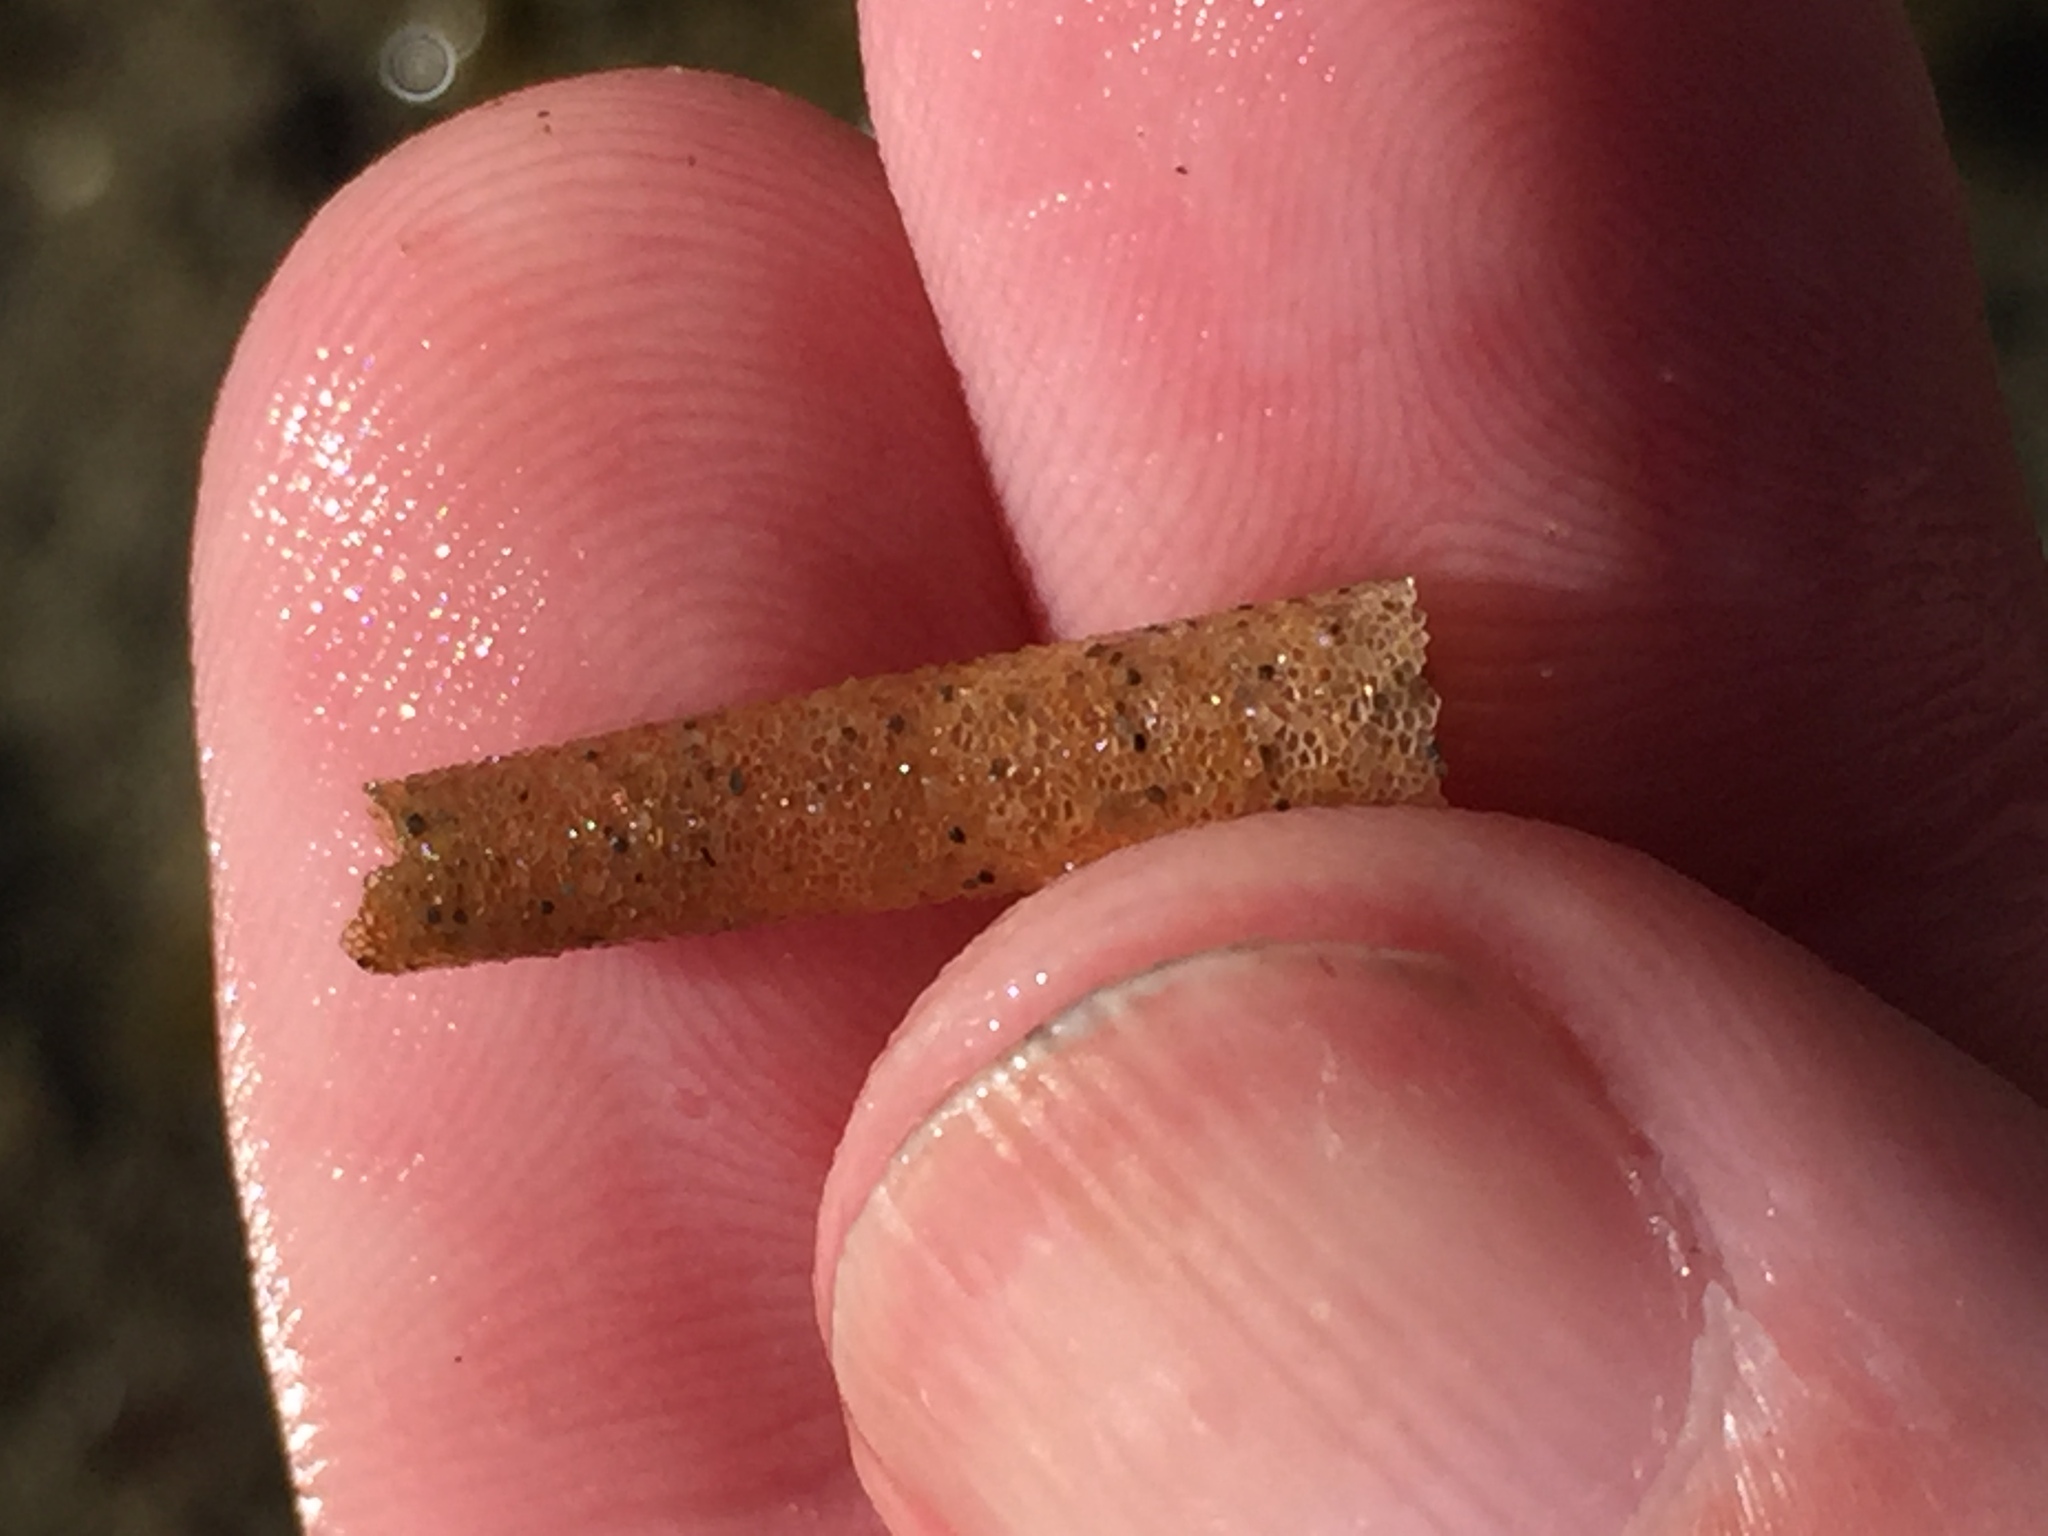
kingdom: Animalia
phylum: Annelida
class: Polychaeta
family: Pectinariidae
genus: Lagis
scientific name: Lagis australis
